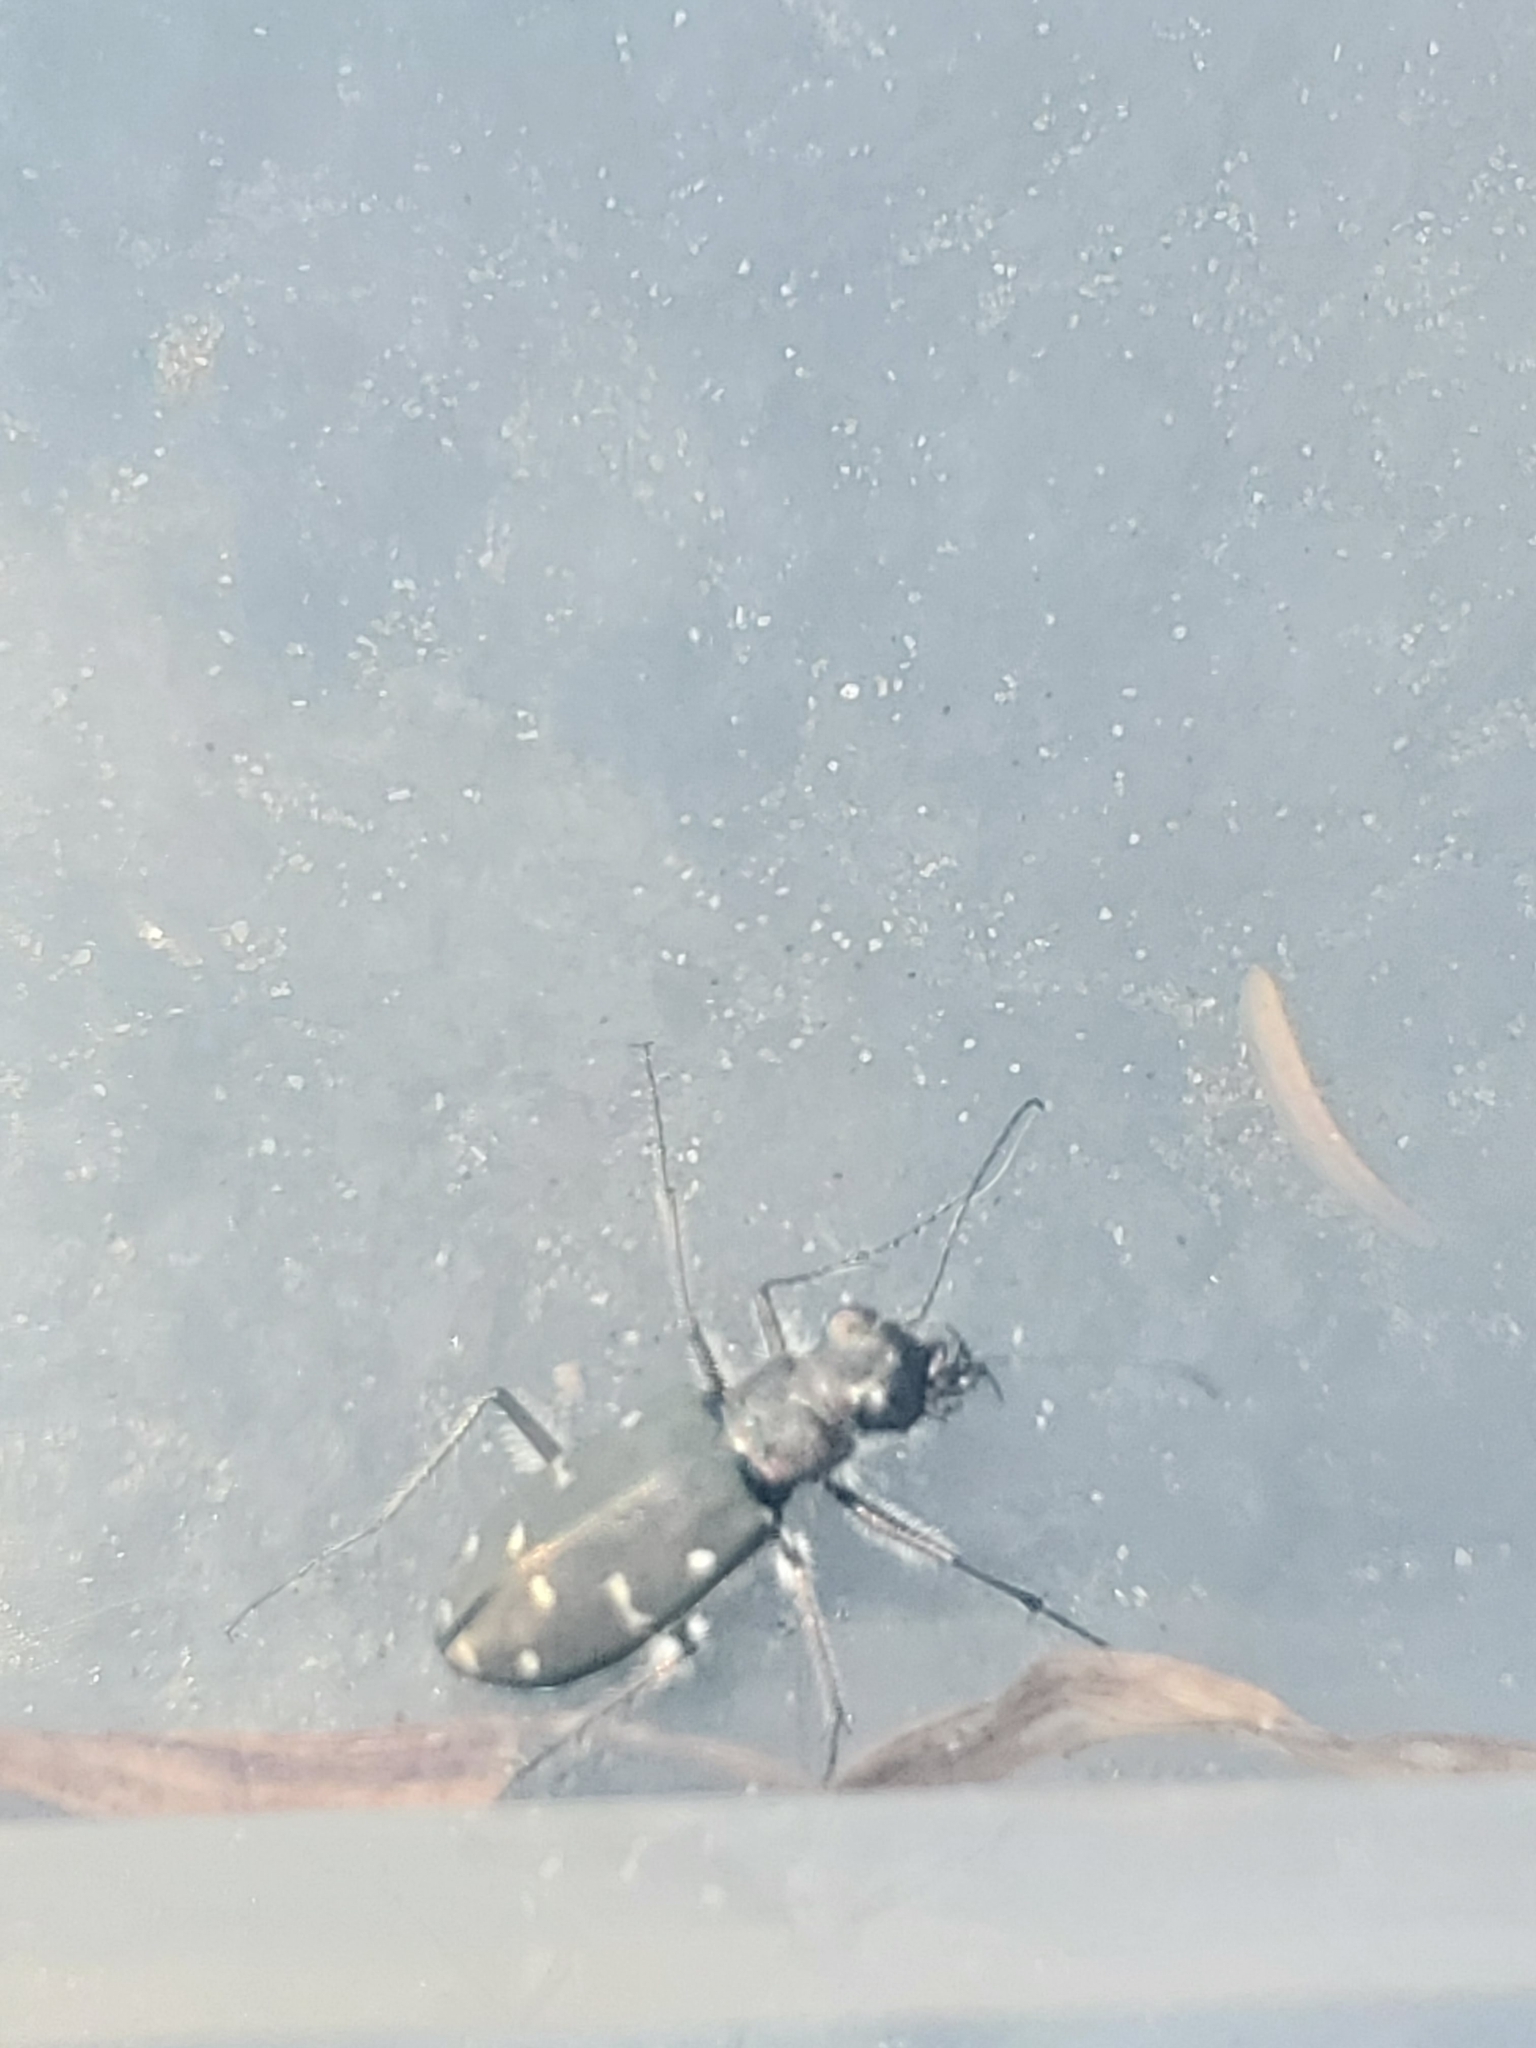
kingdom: Animalia
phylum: Arthropoda
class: Insecta
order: Coleoptera
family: Carabidae
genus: Cicindela
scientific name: Cicindela oregona
